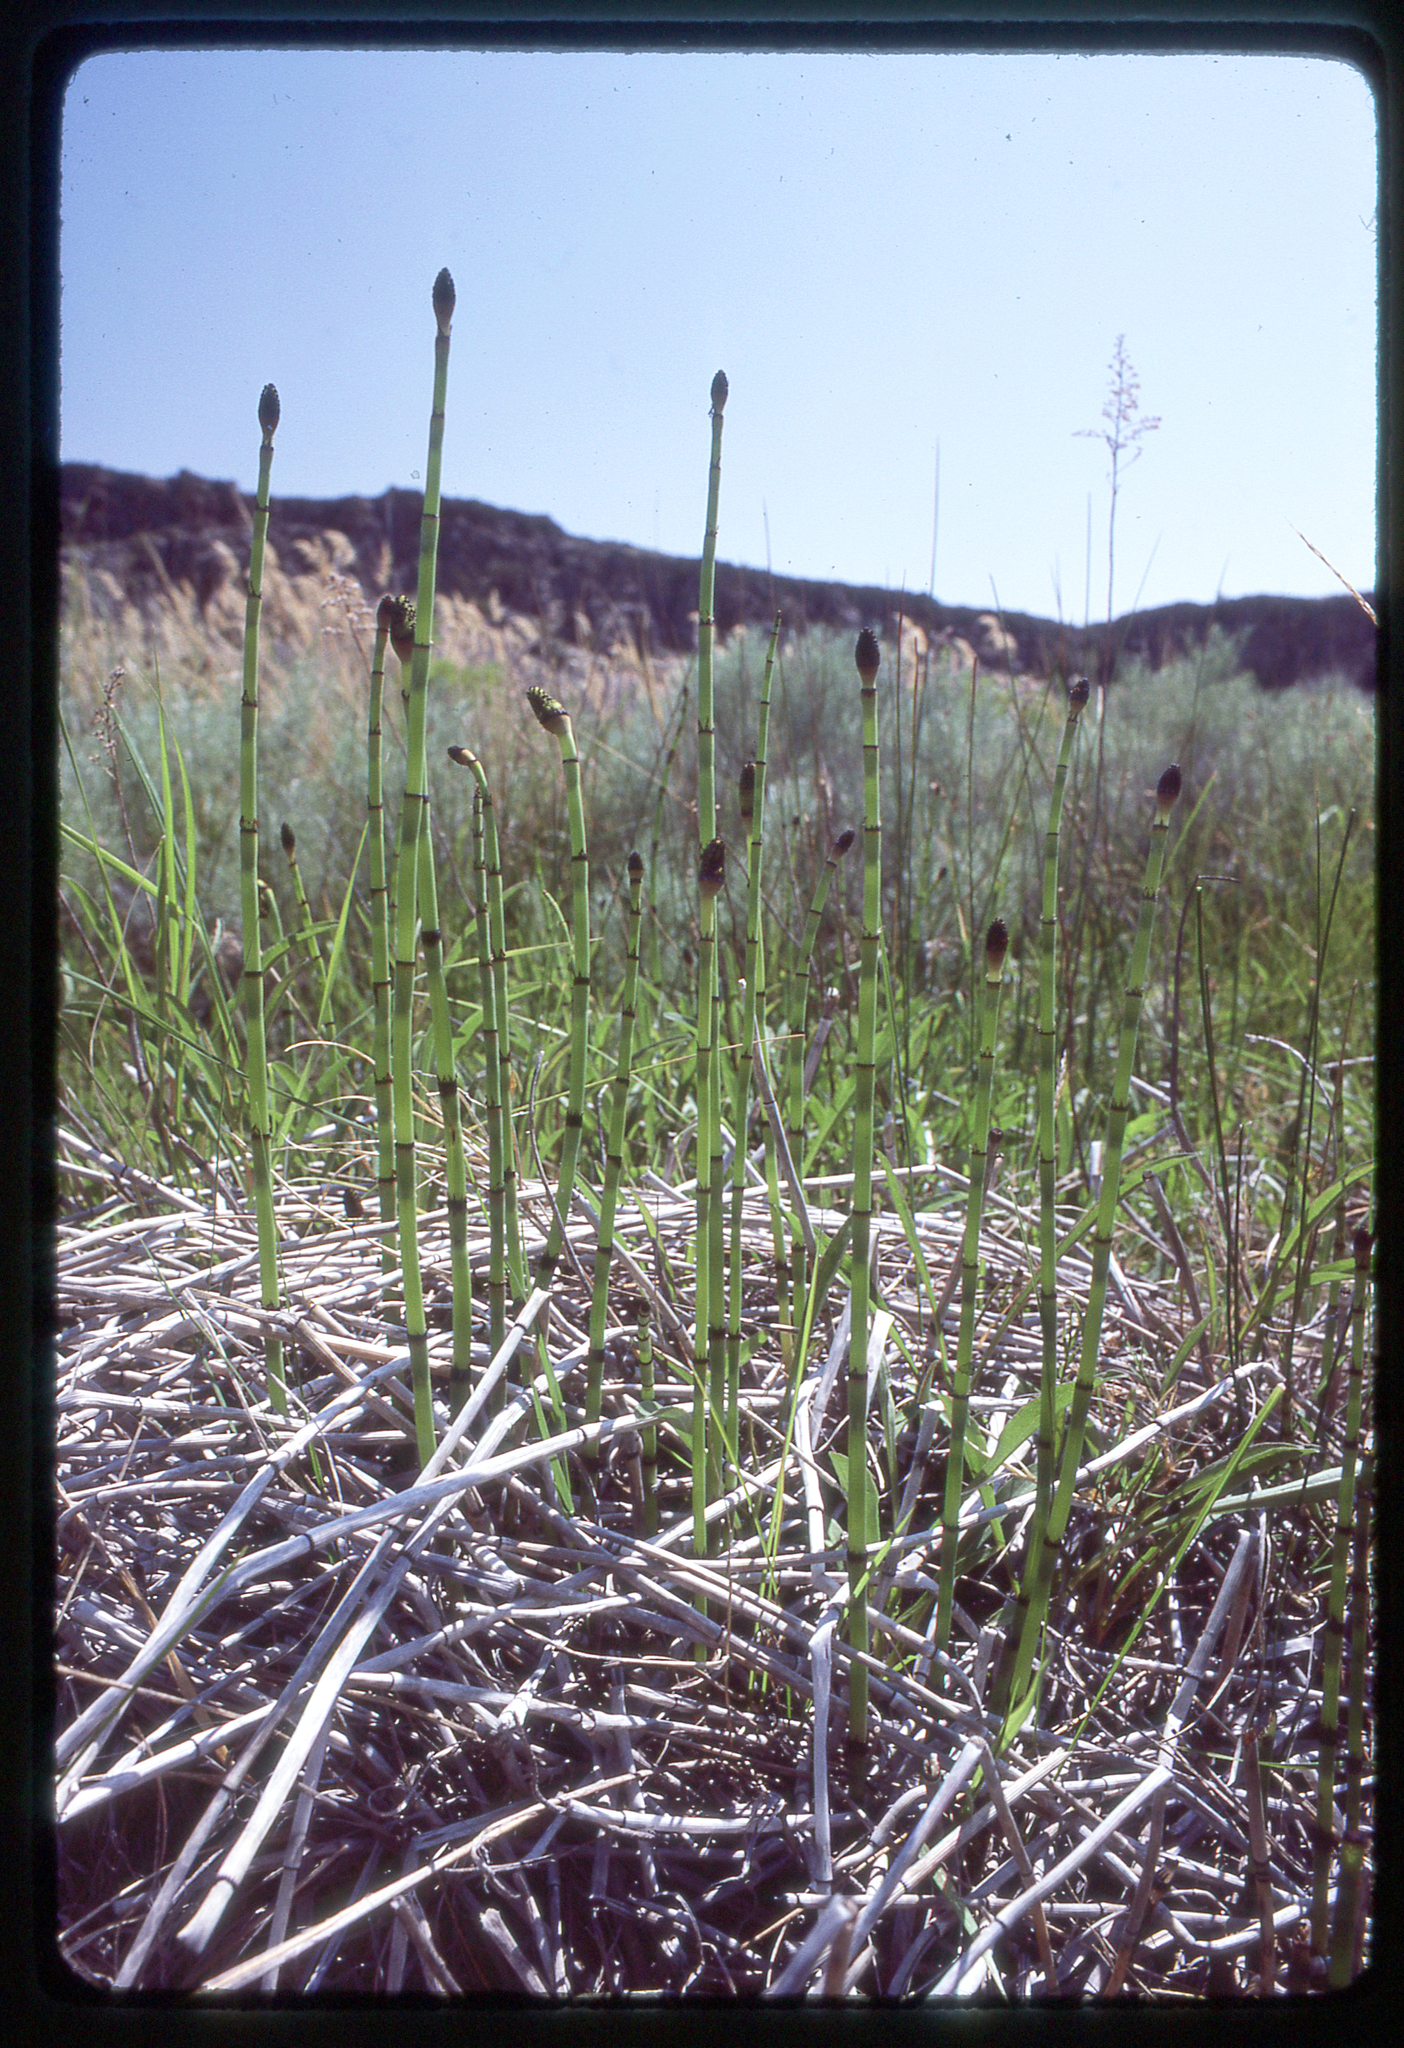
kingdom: Plantae
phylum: Tracheophyta
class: Polypodiopsida
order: Equisetales
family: Equisetaceae
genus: Equisetum
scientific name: Equisetum laevigatum
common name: Smooth scouring-rush
